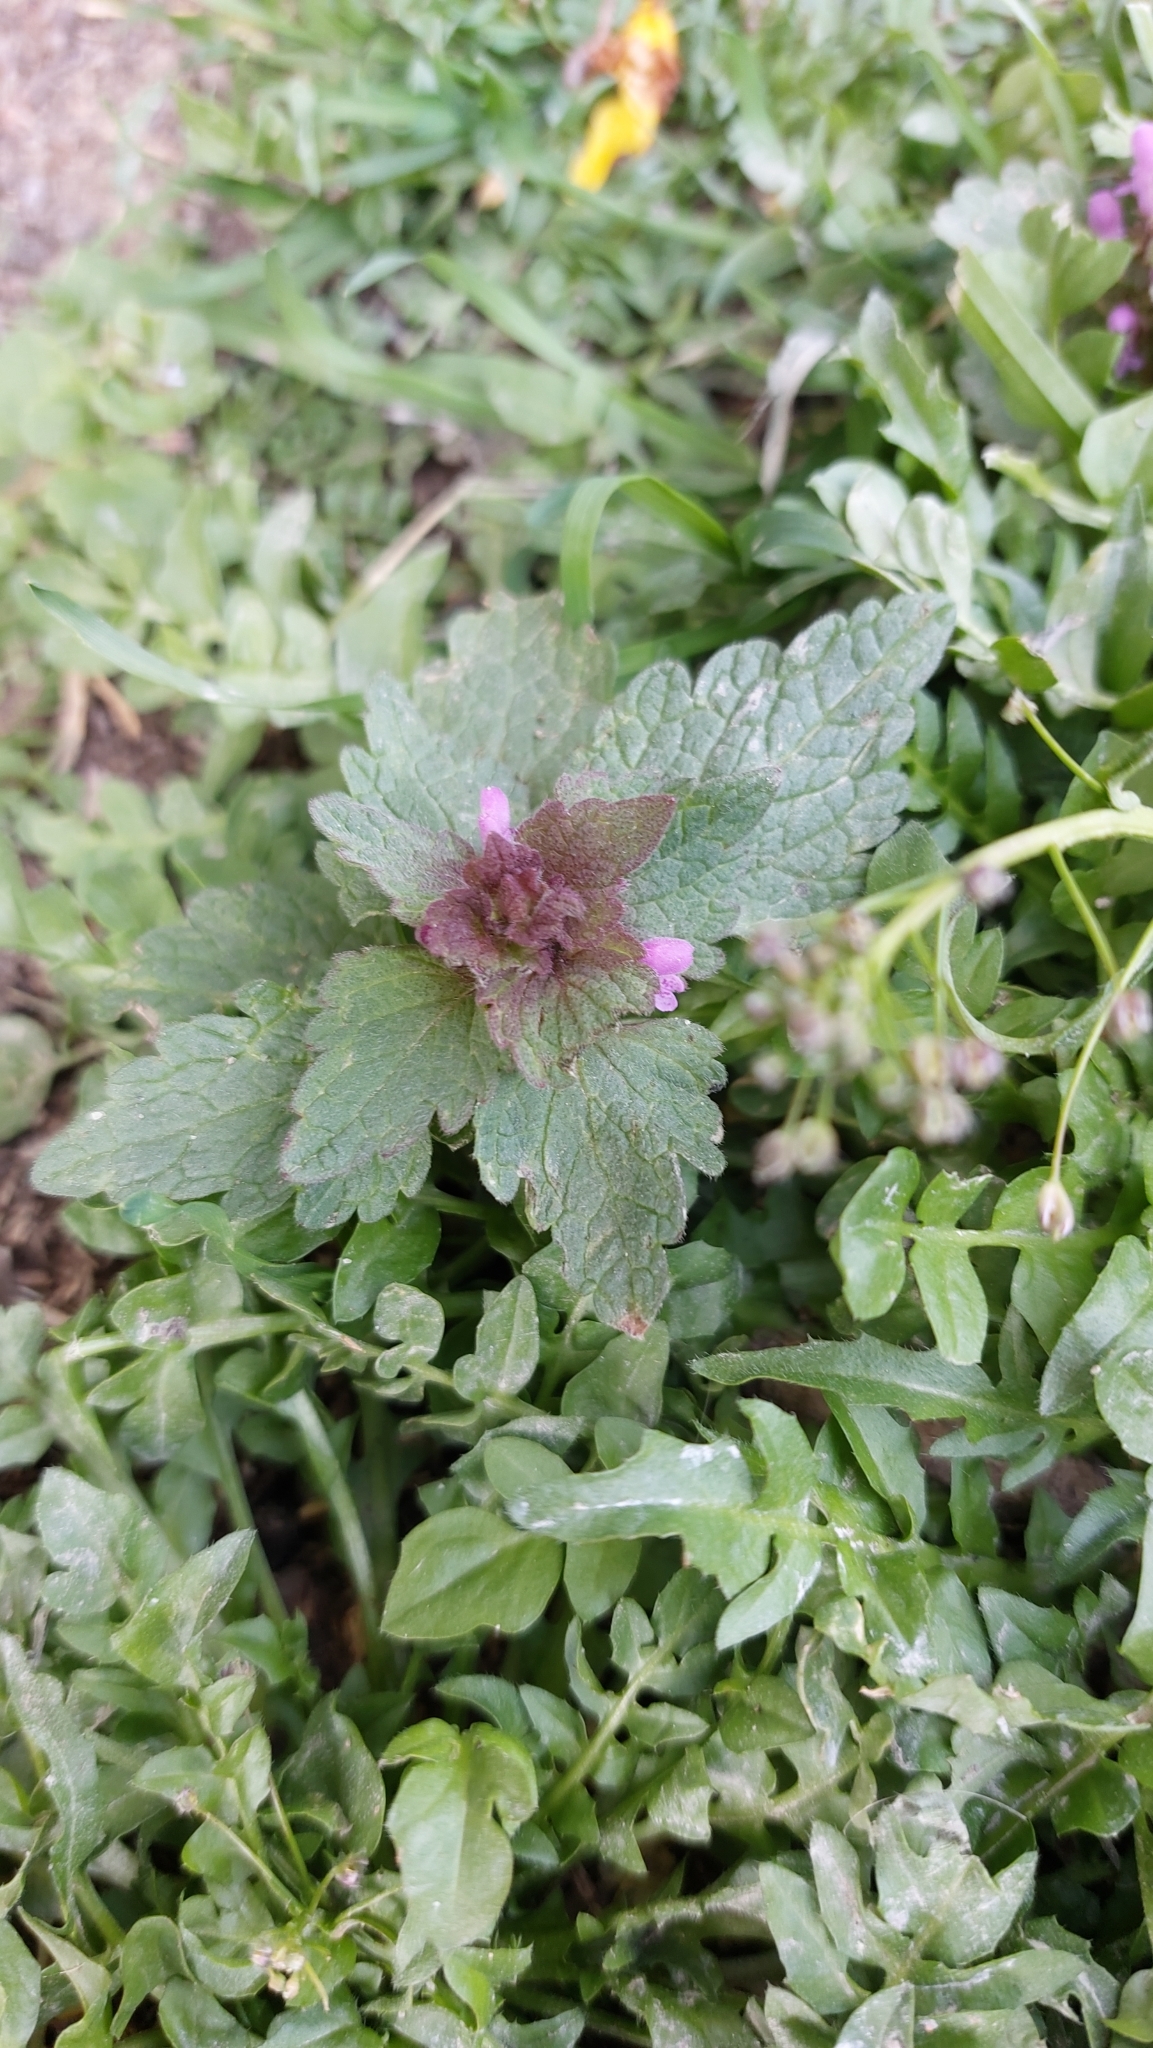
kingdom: Plantae
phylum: Tracheophyta
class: Magnoliopsida
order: Lamiales
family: Lamiaceae
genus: Lamium
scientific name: Lamium purpureum
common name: Red dead-nettle
